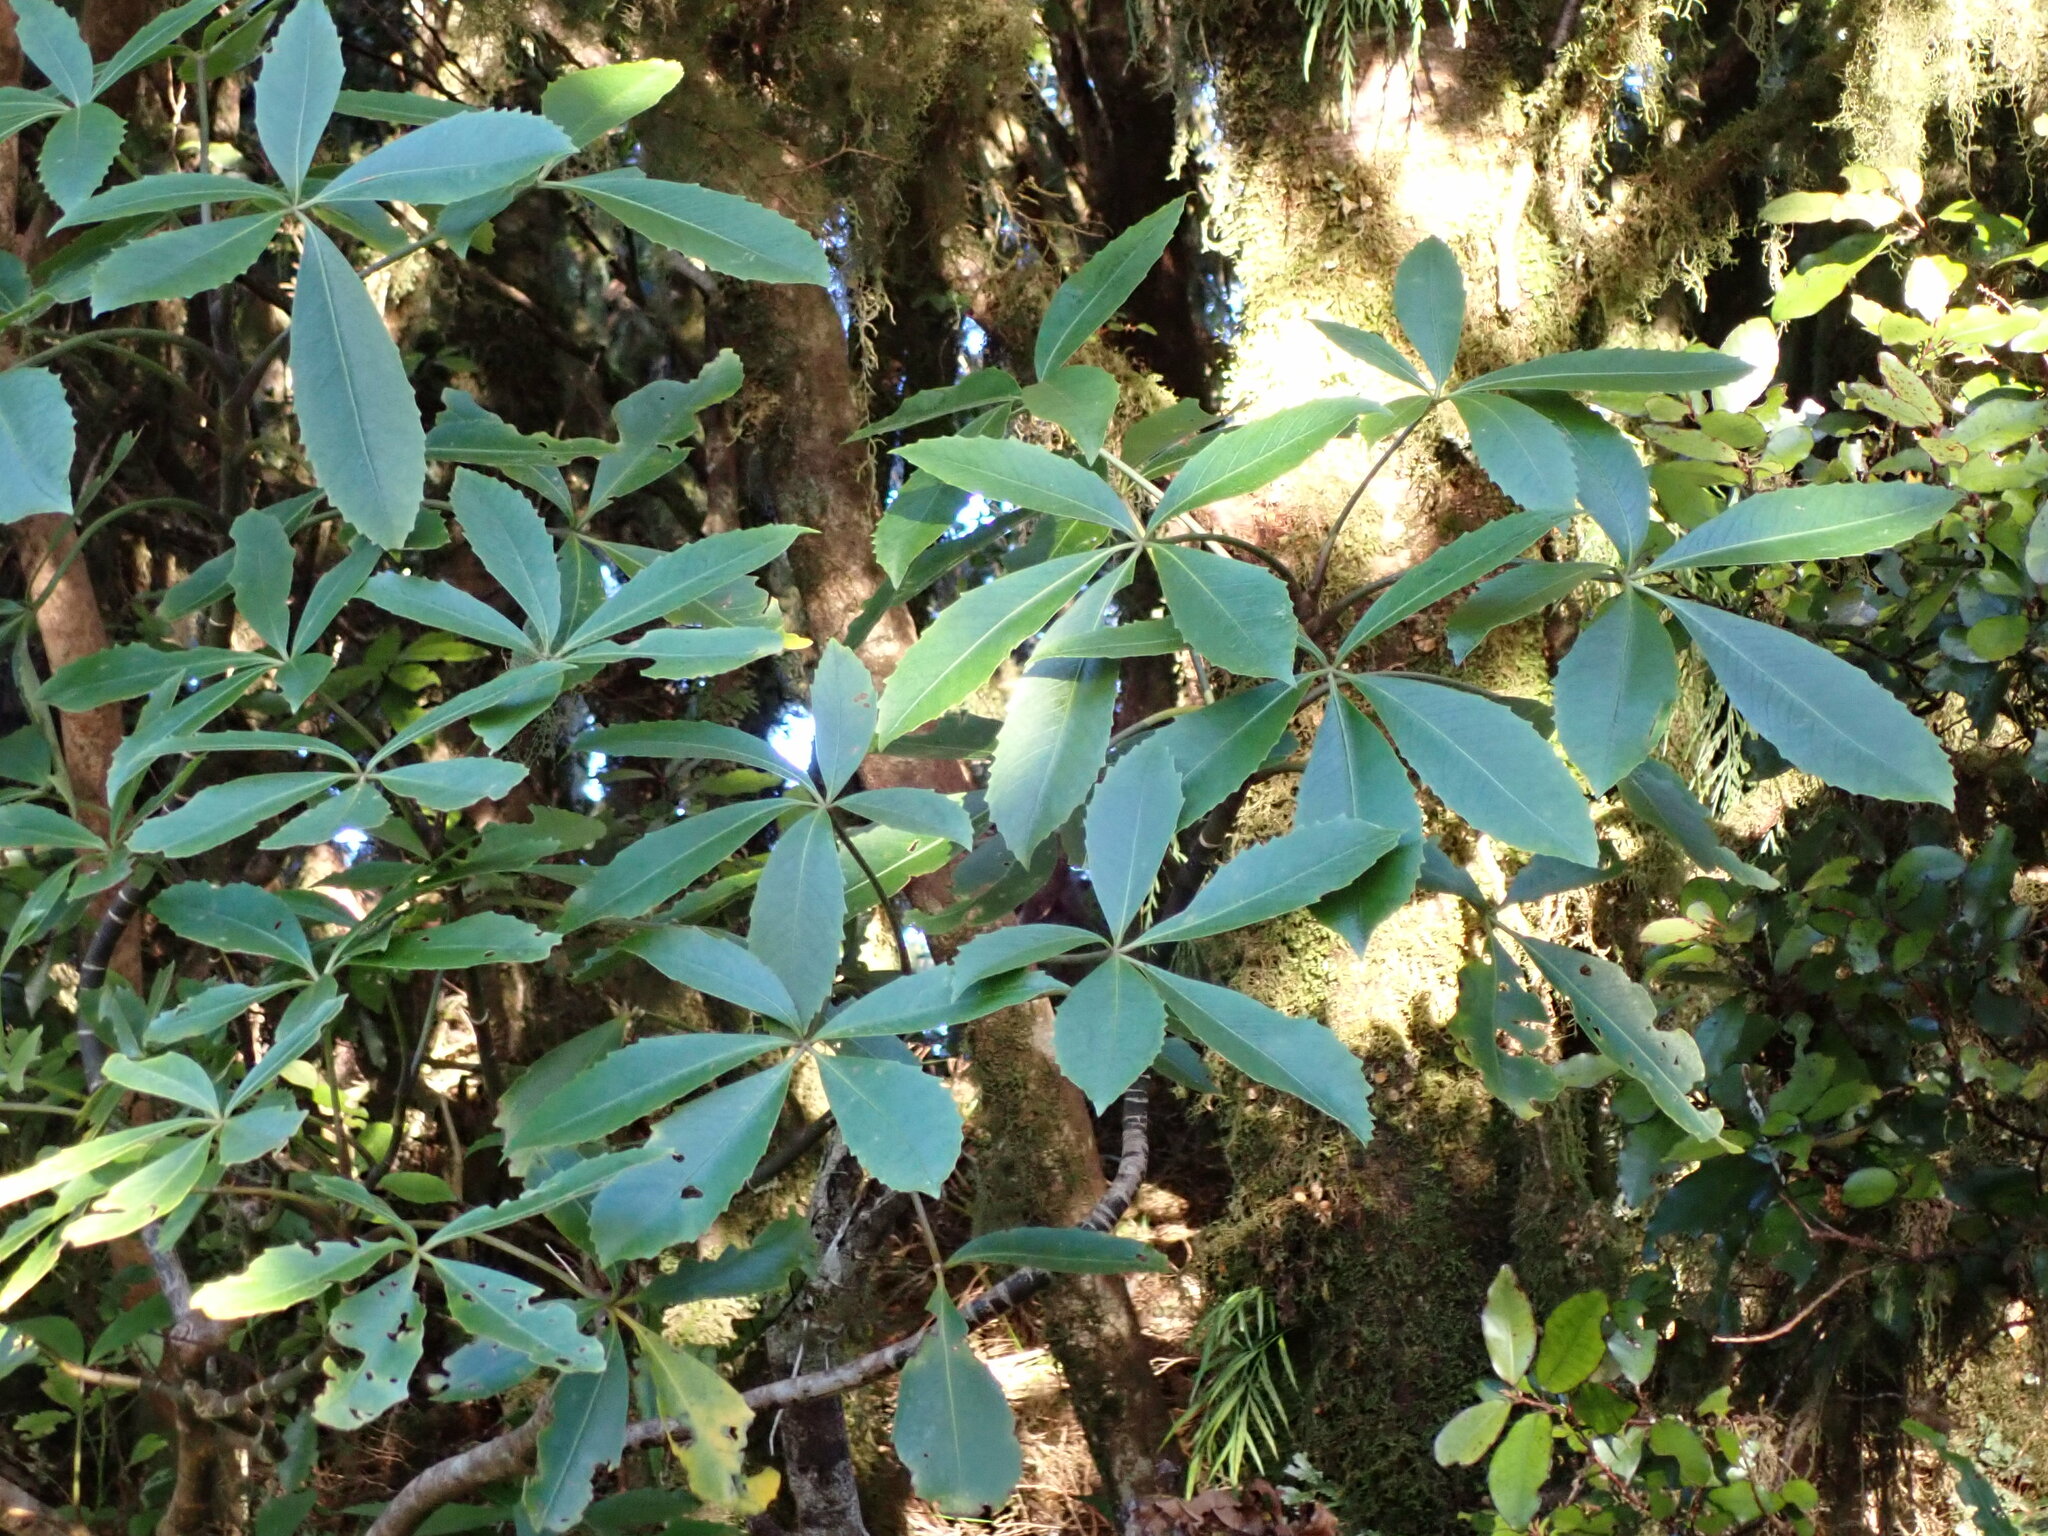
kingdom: Plantae
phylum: Tracheophyta
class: Magnoliopsida
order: Apiales
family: Araliaceae
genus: Neopanax
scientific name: Neopanax colensoi
